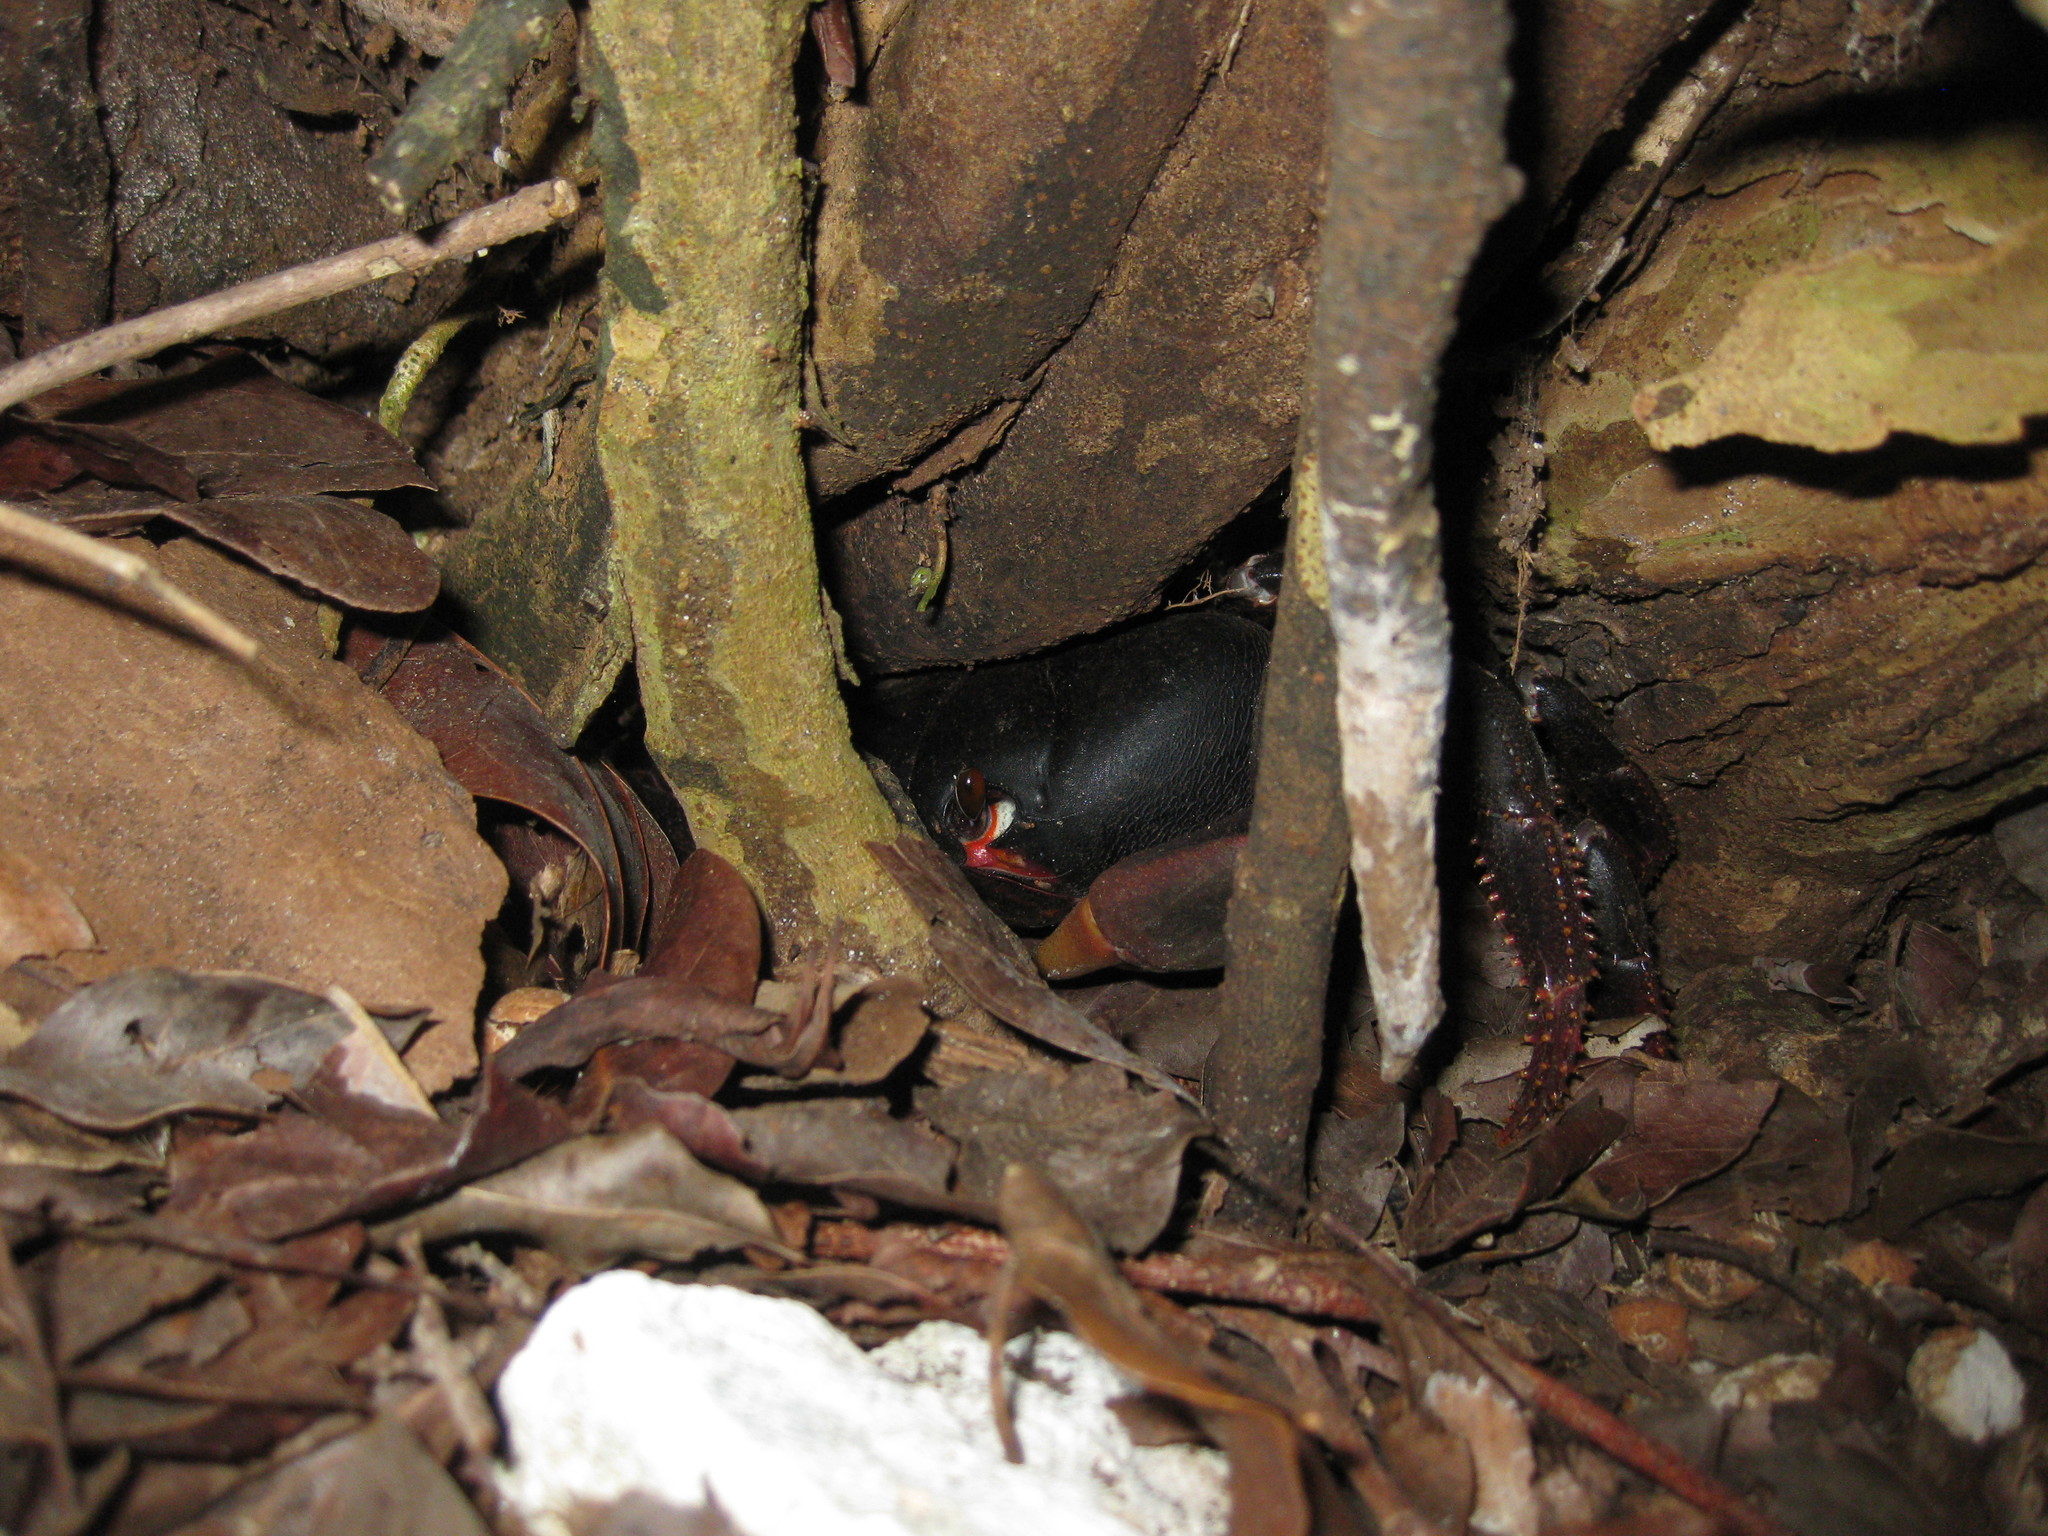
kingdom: Animalia
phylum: Arthropoda
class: Malacostraca
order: Decapoda
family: Gecarcinidae
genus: Gecarcinus
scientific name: Gecarcinus ruricola
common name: Black land crab
